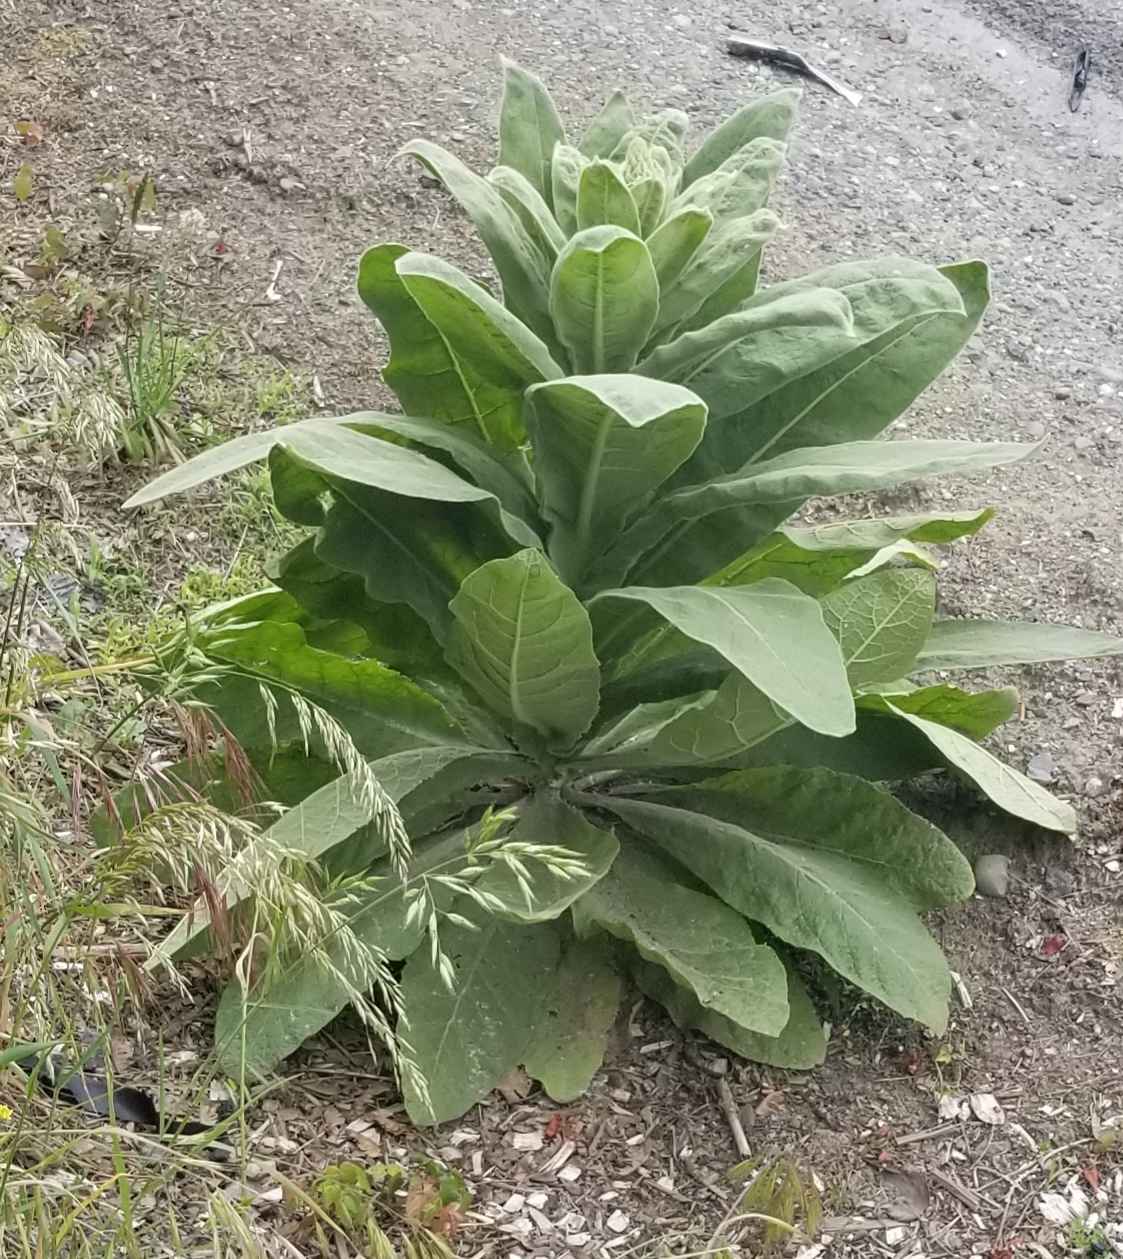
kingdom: Plantae
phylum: Tracheophyta
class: Magnoliopsida
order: Lamiales
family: Scrophulariaceae
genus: Verbascum
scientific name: Verbascum thapsus
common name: Common mullein
